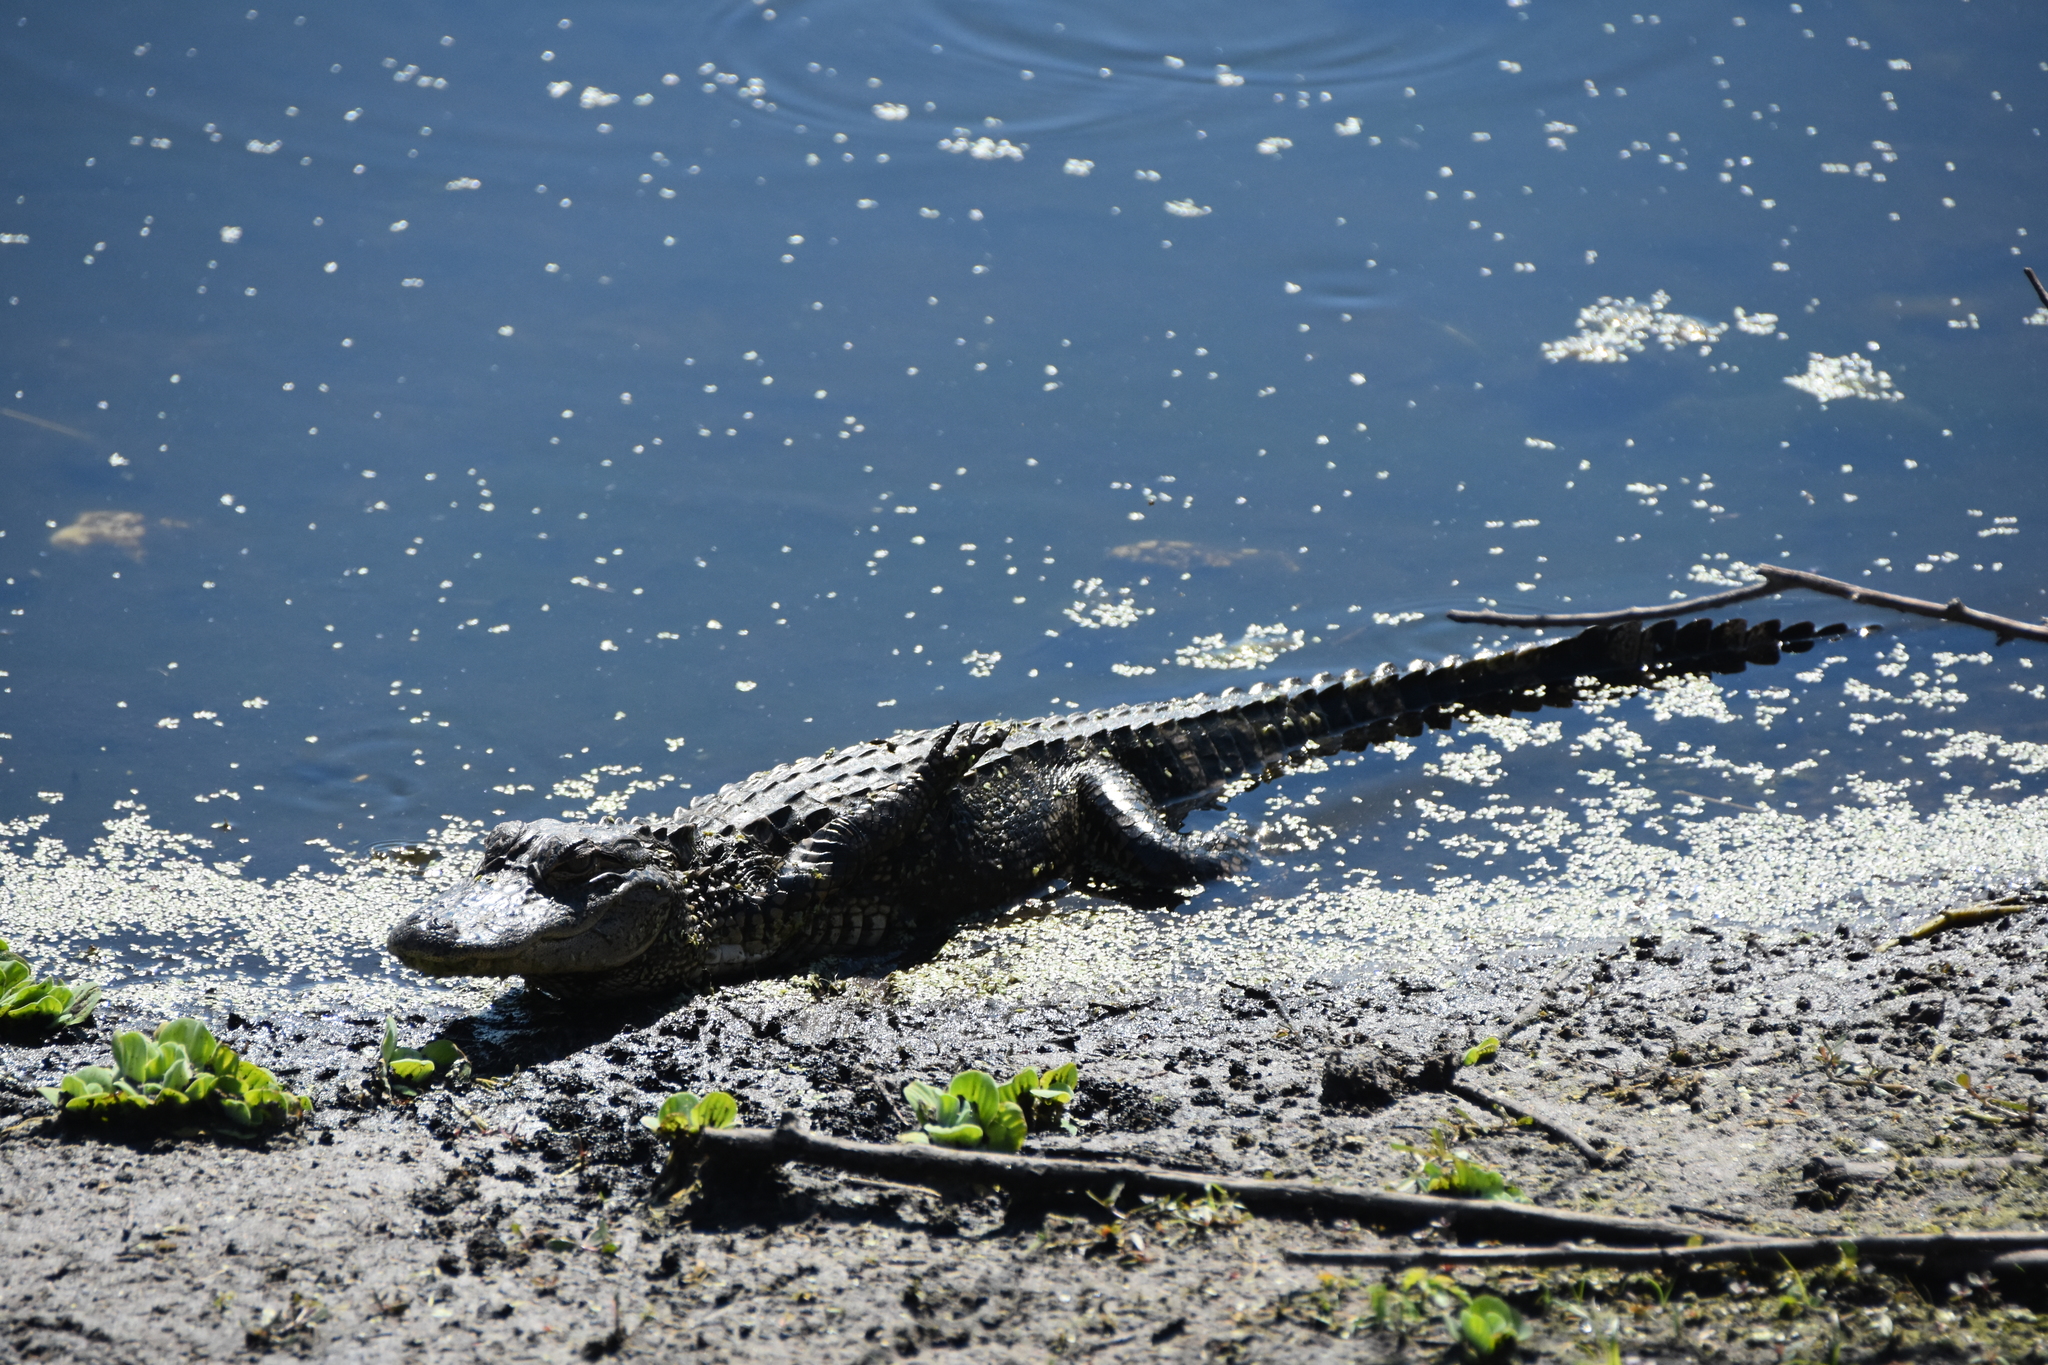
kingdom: Animalia
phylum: Chordata
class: Crocodylia
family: Alligatoridae
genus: Alligator
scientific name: Alligator mississippiensis
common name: American alligator
